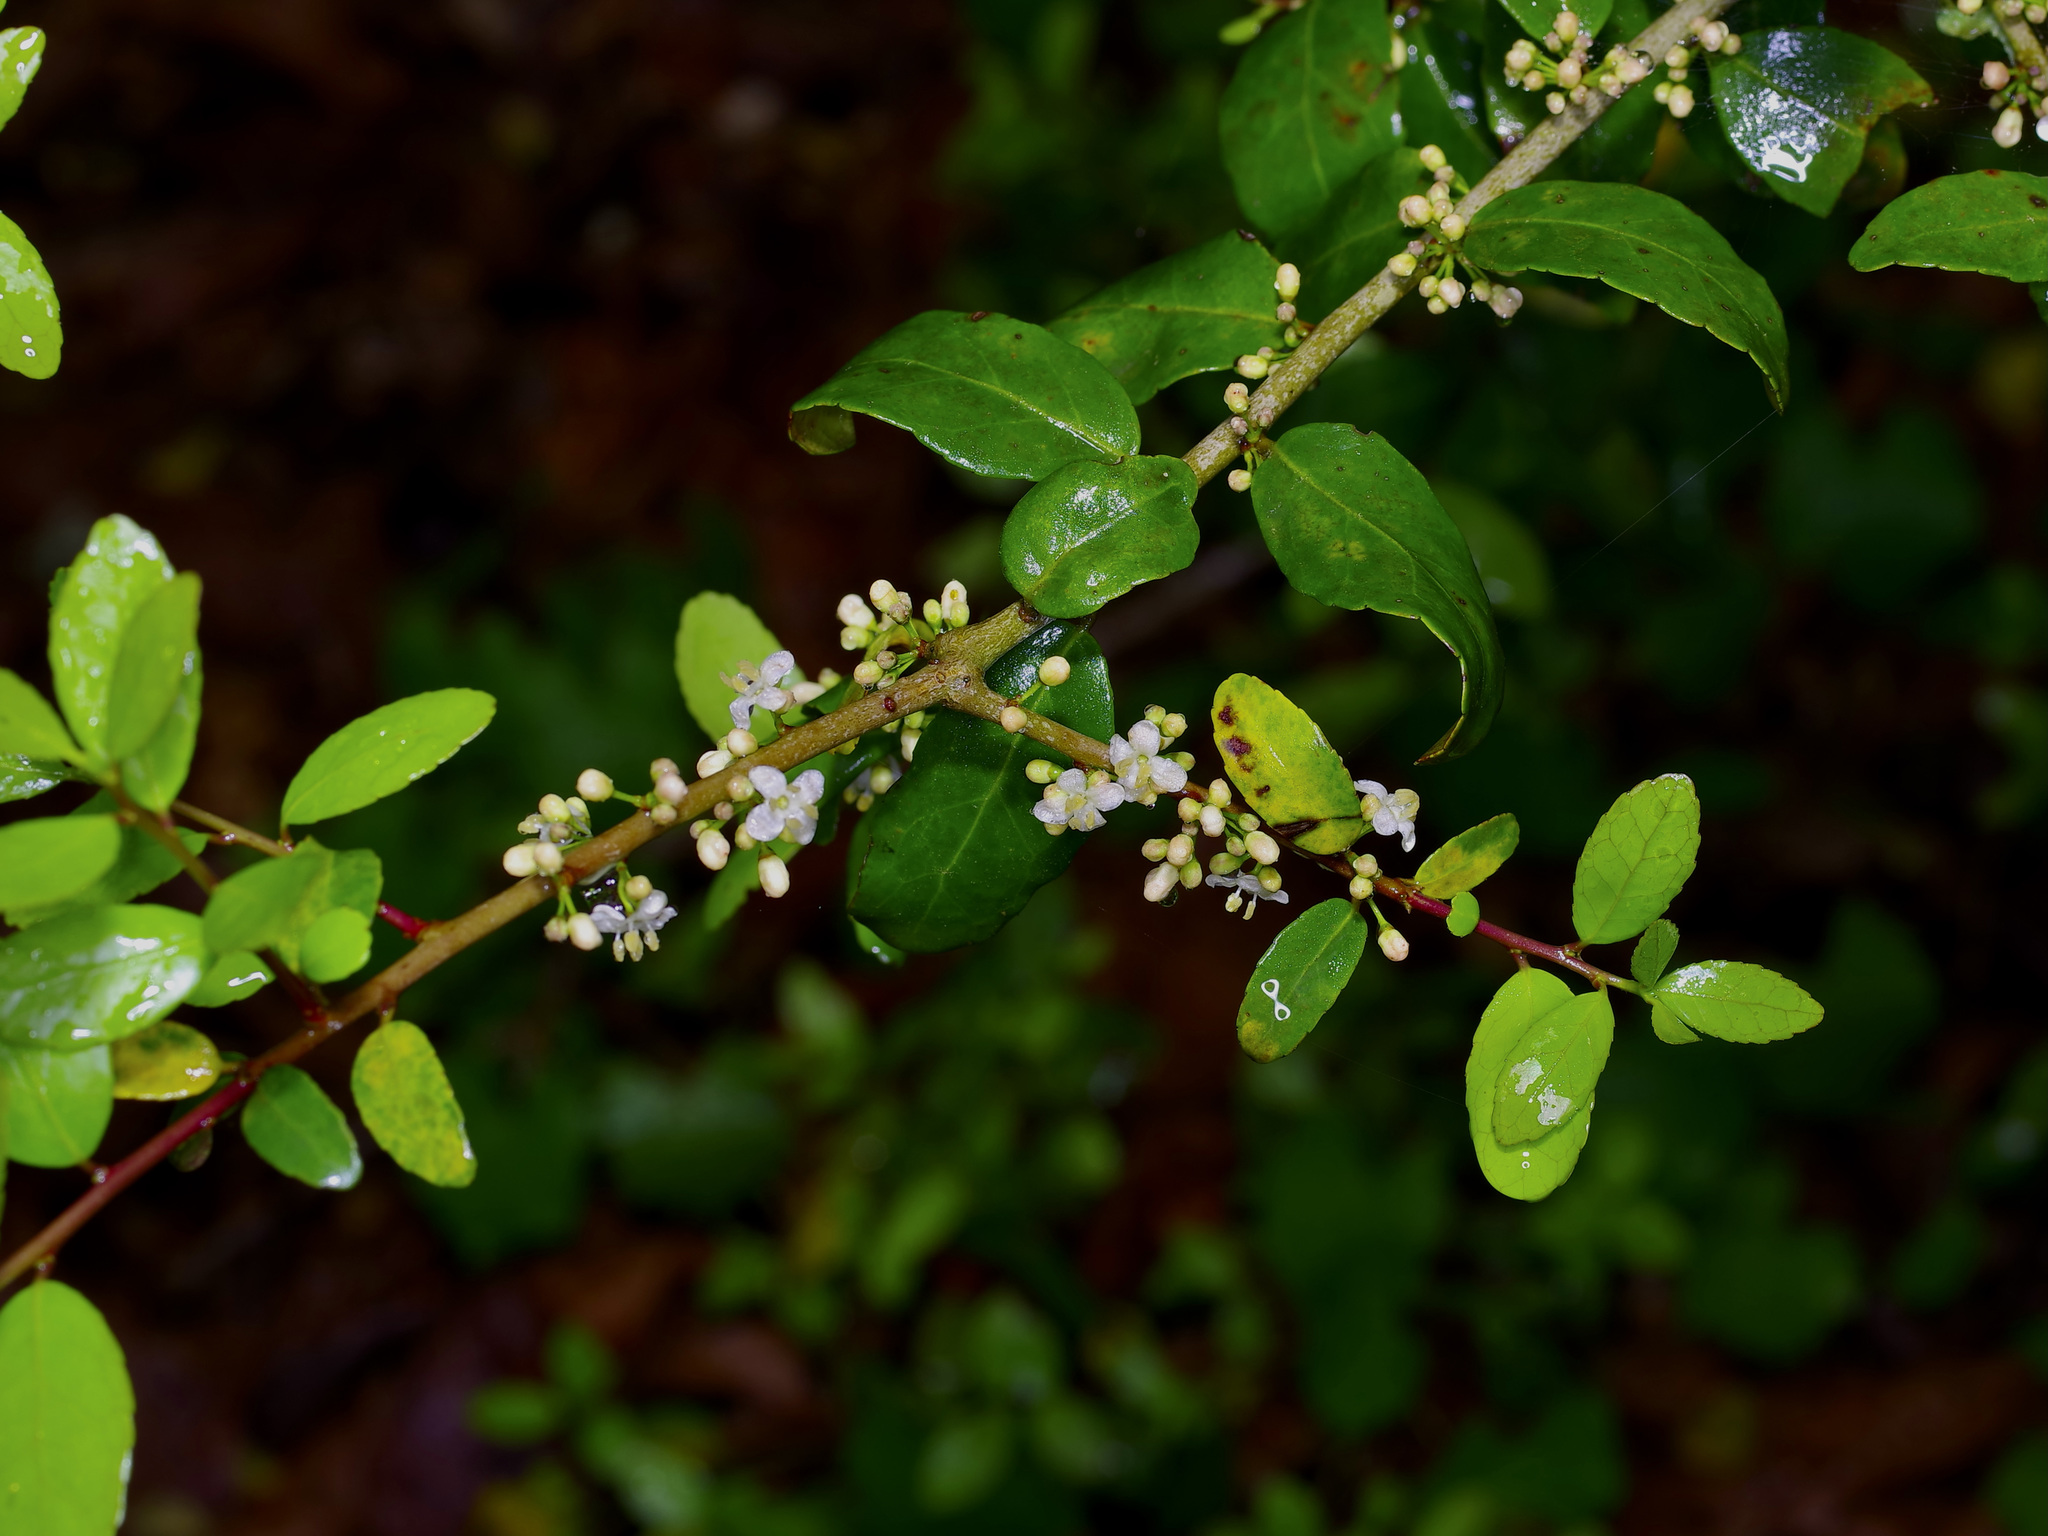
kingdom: Plantae
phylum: Tracheophyta
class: Magnoliopsida
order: Aquifoliales
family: Aquifoliaceae
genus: Ilex
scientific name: Ilex vomitoria
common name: Yaupon holly
